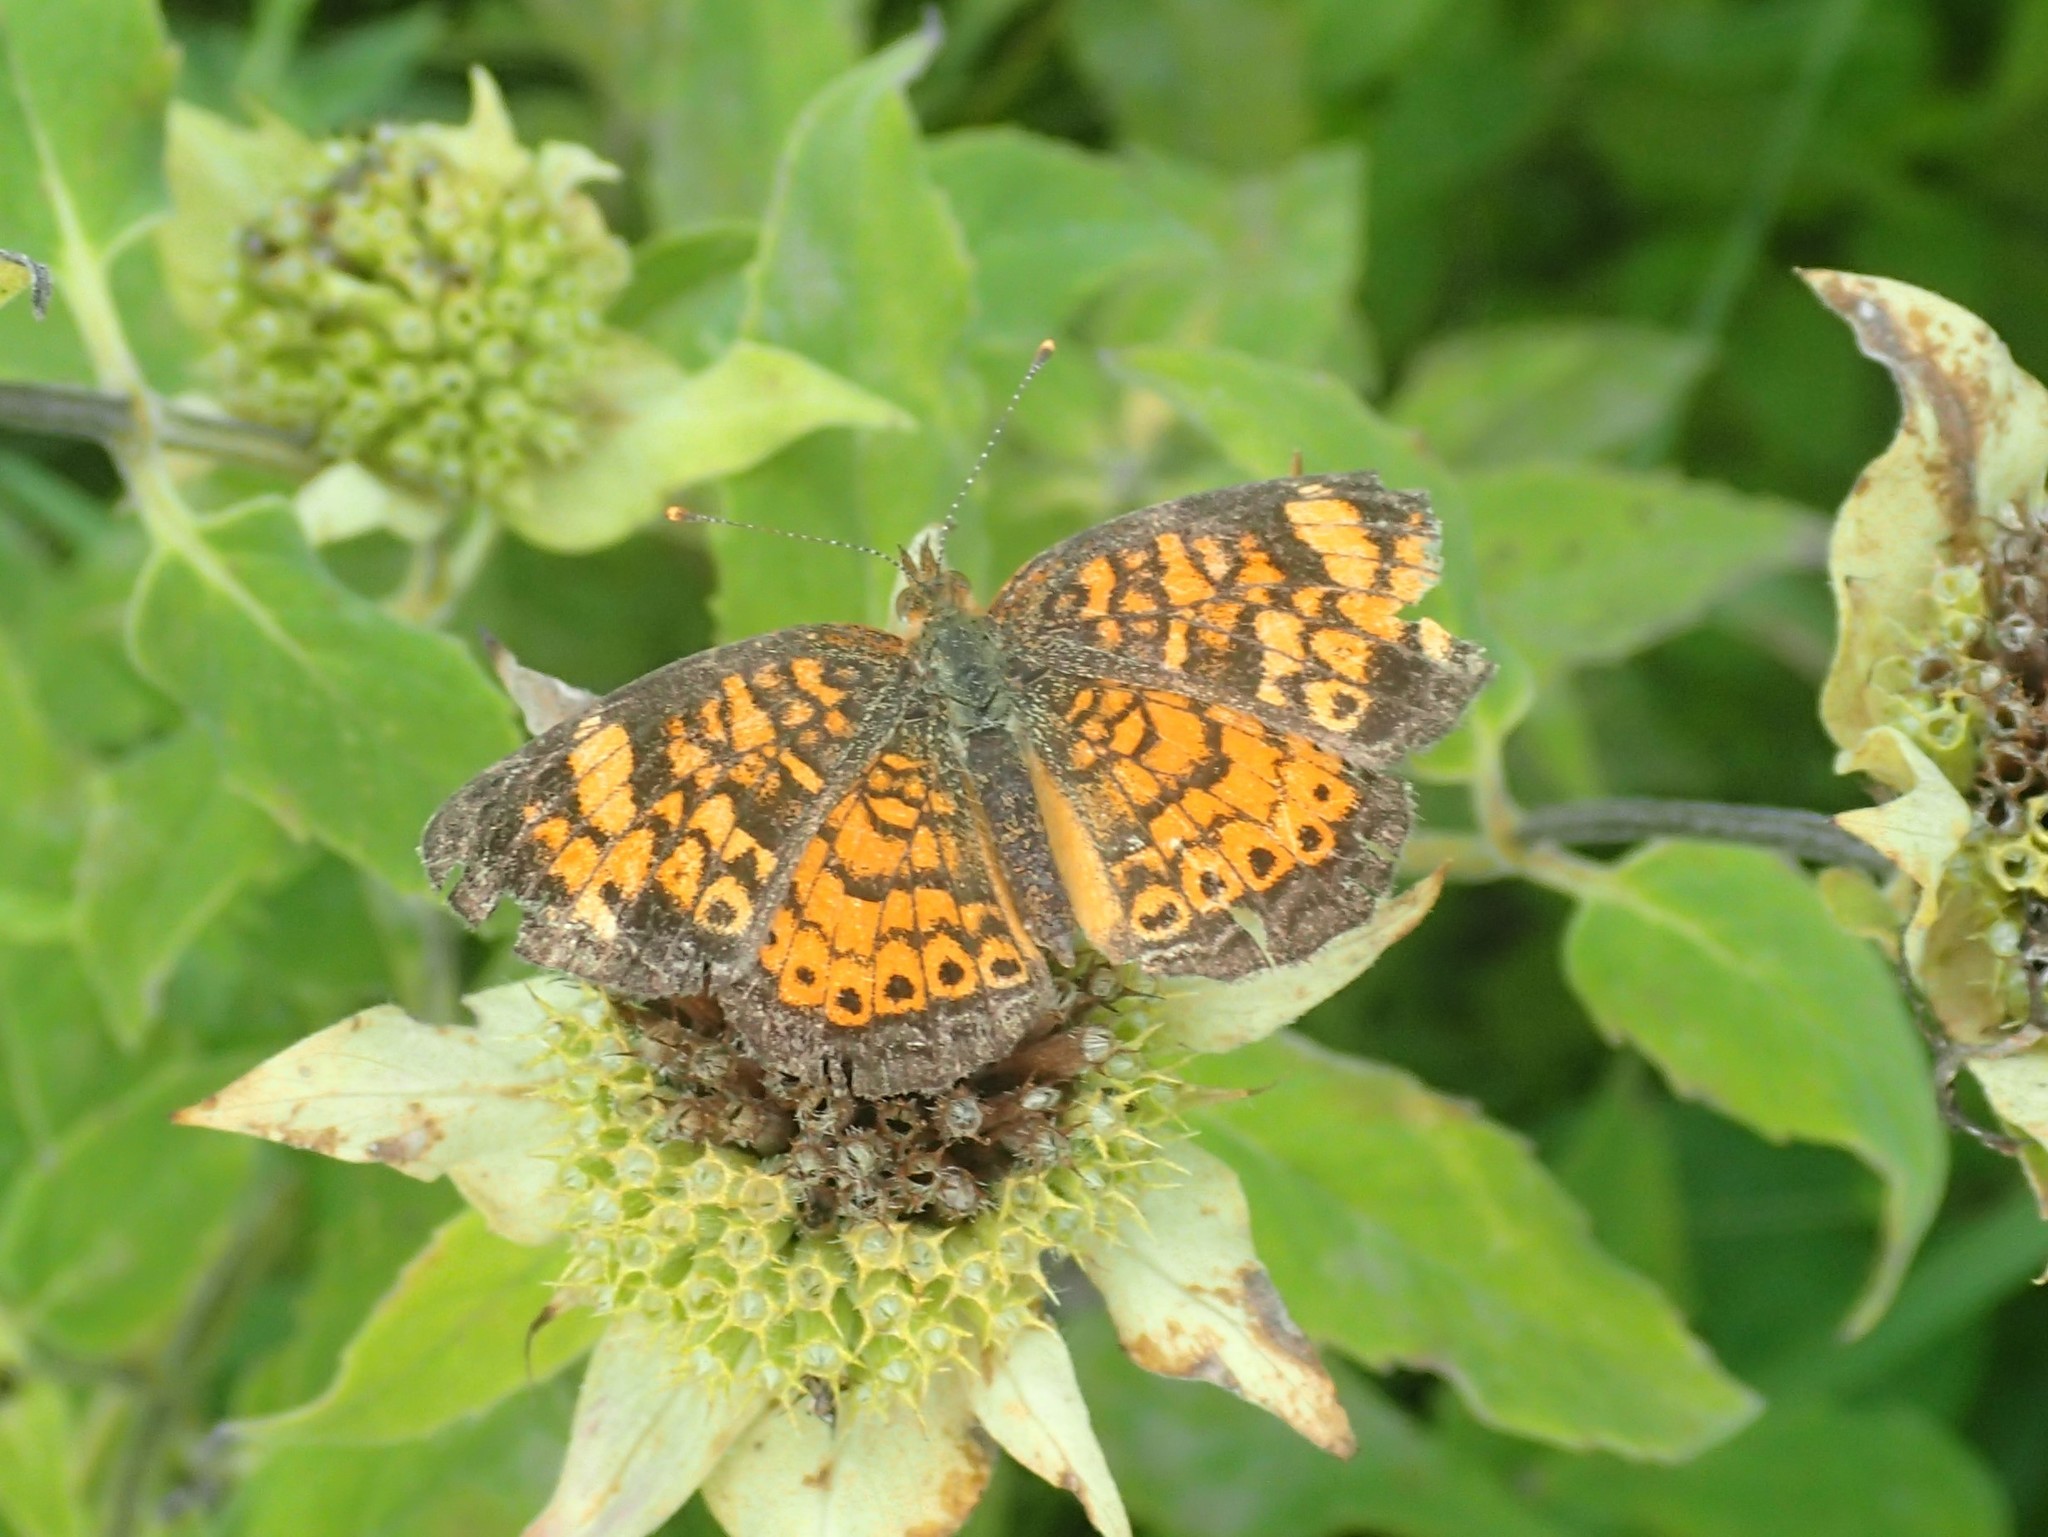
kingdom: Animalia
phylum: Arthropoda
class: Insecta
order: Lepidoptera
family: Nymphalidae
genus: Phyciodes
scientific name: Phyciodes tharos
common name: Pearl crescent
